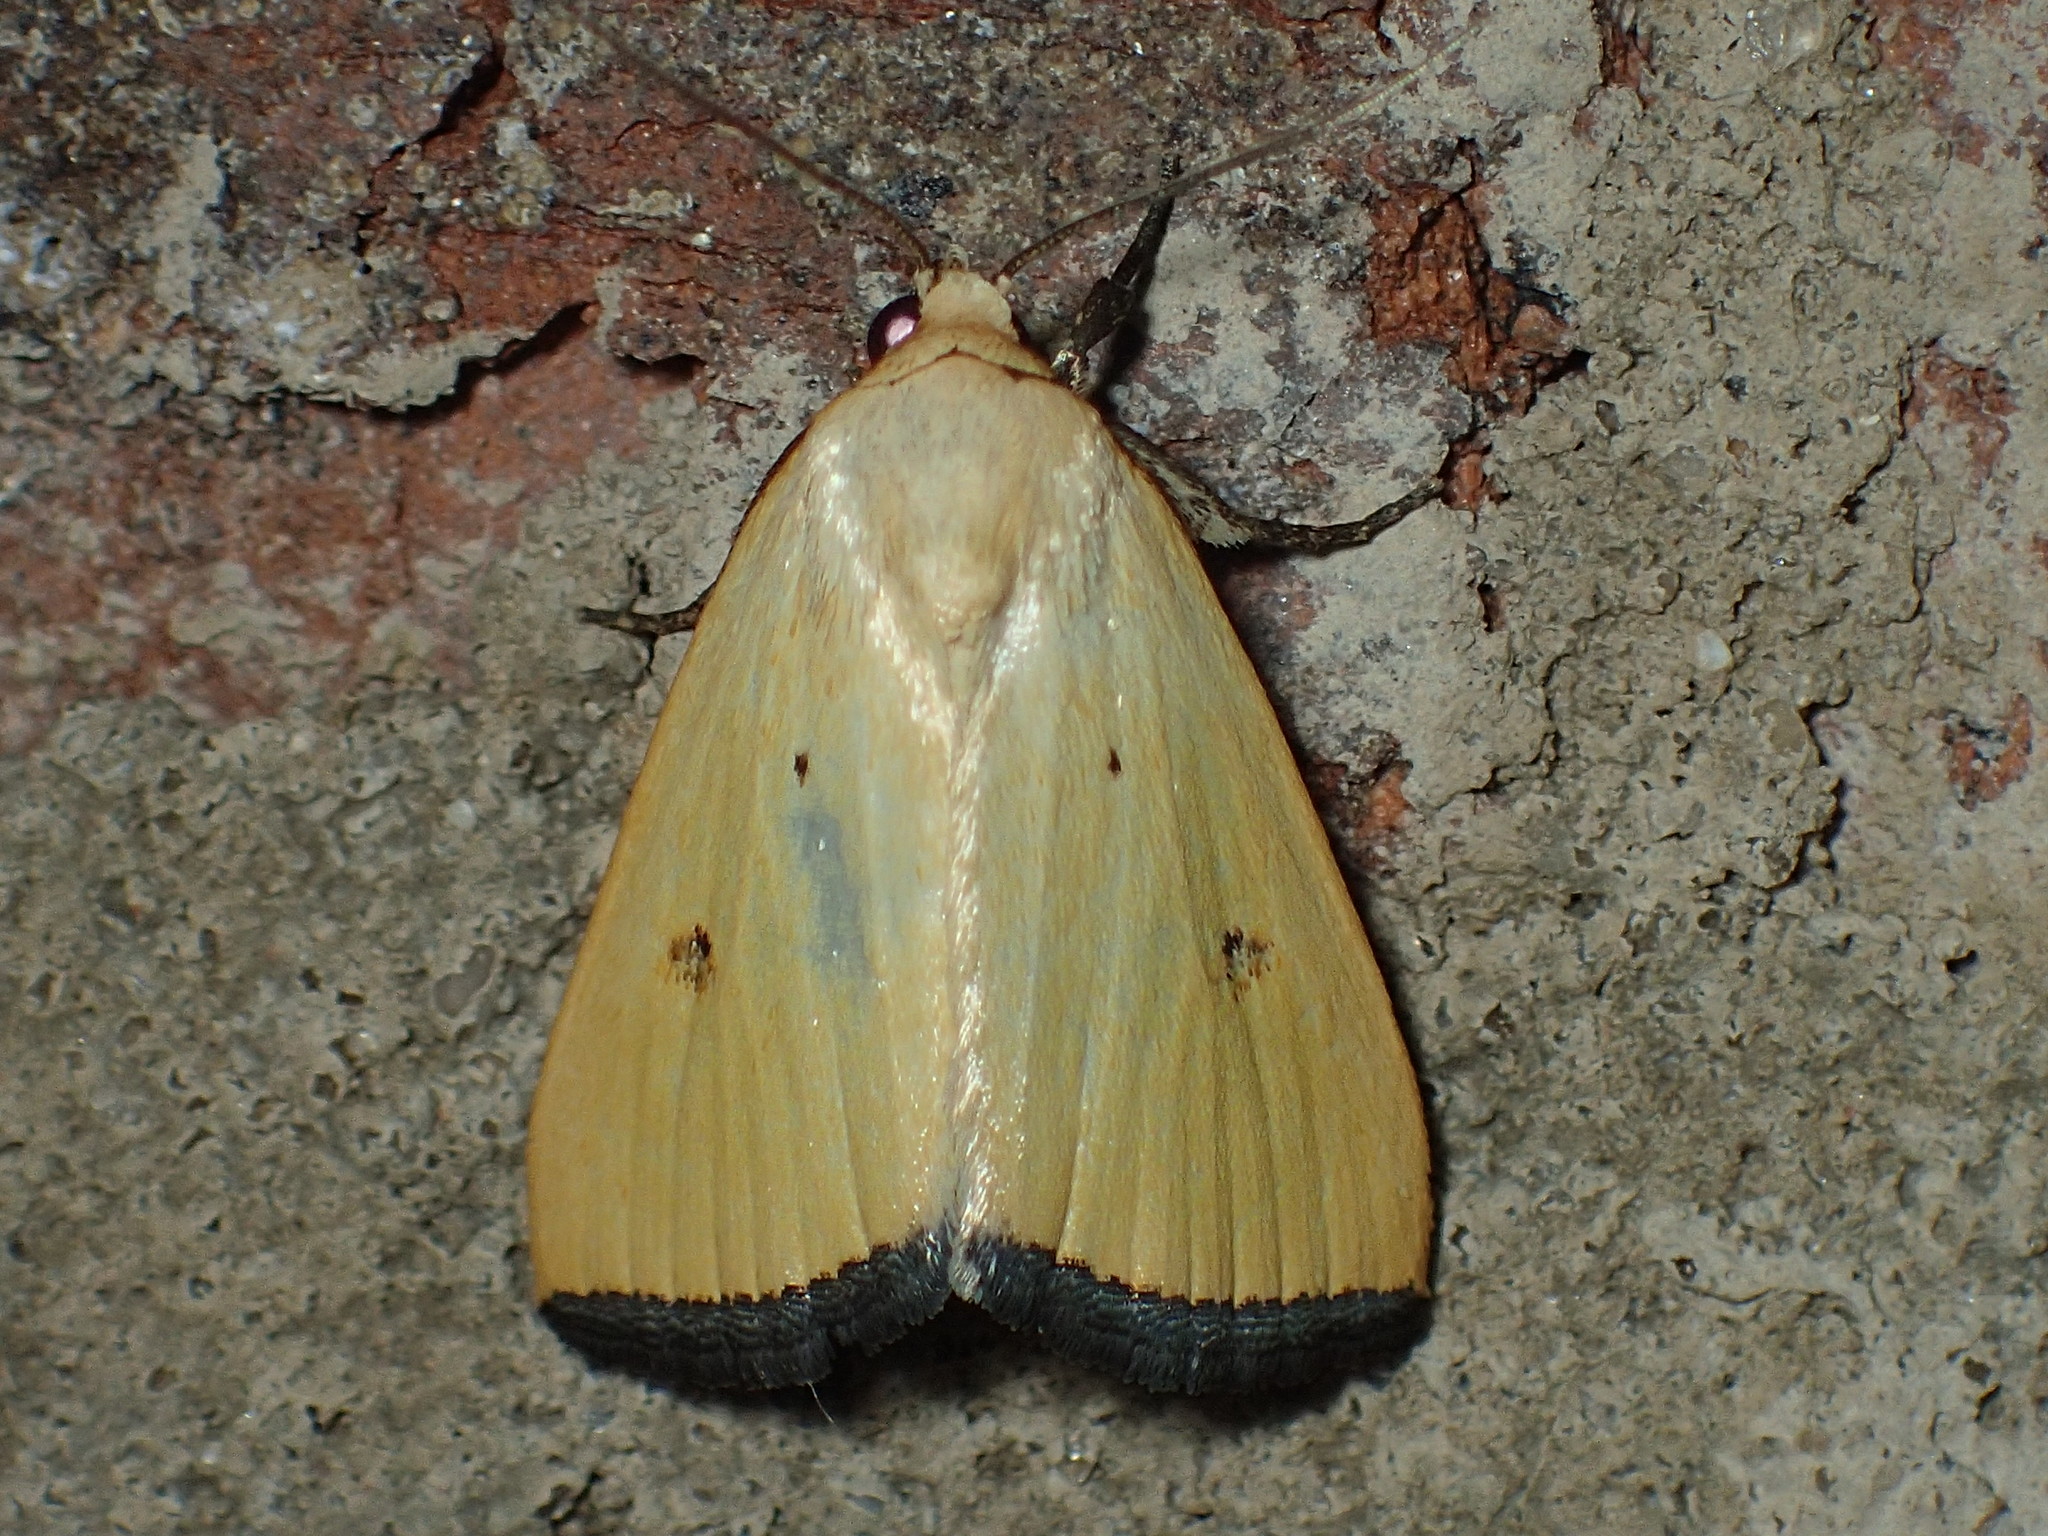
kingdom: Animalia
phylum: Arthropoda
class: Insecta
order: Lepidoptera
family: Noctuidae
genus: Marimatha
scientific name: Marimatha nigrofimbria
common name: Black-bordered lemon moth
